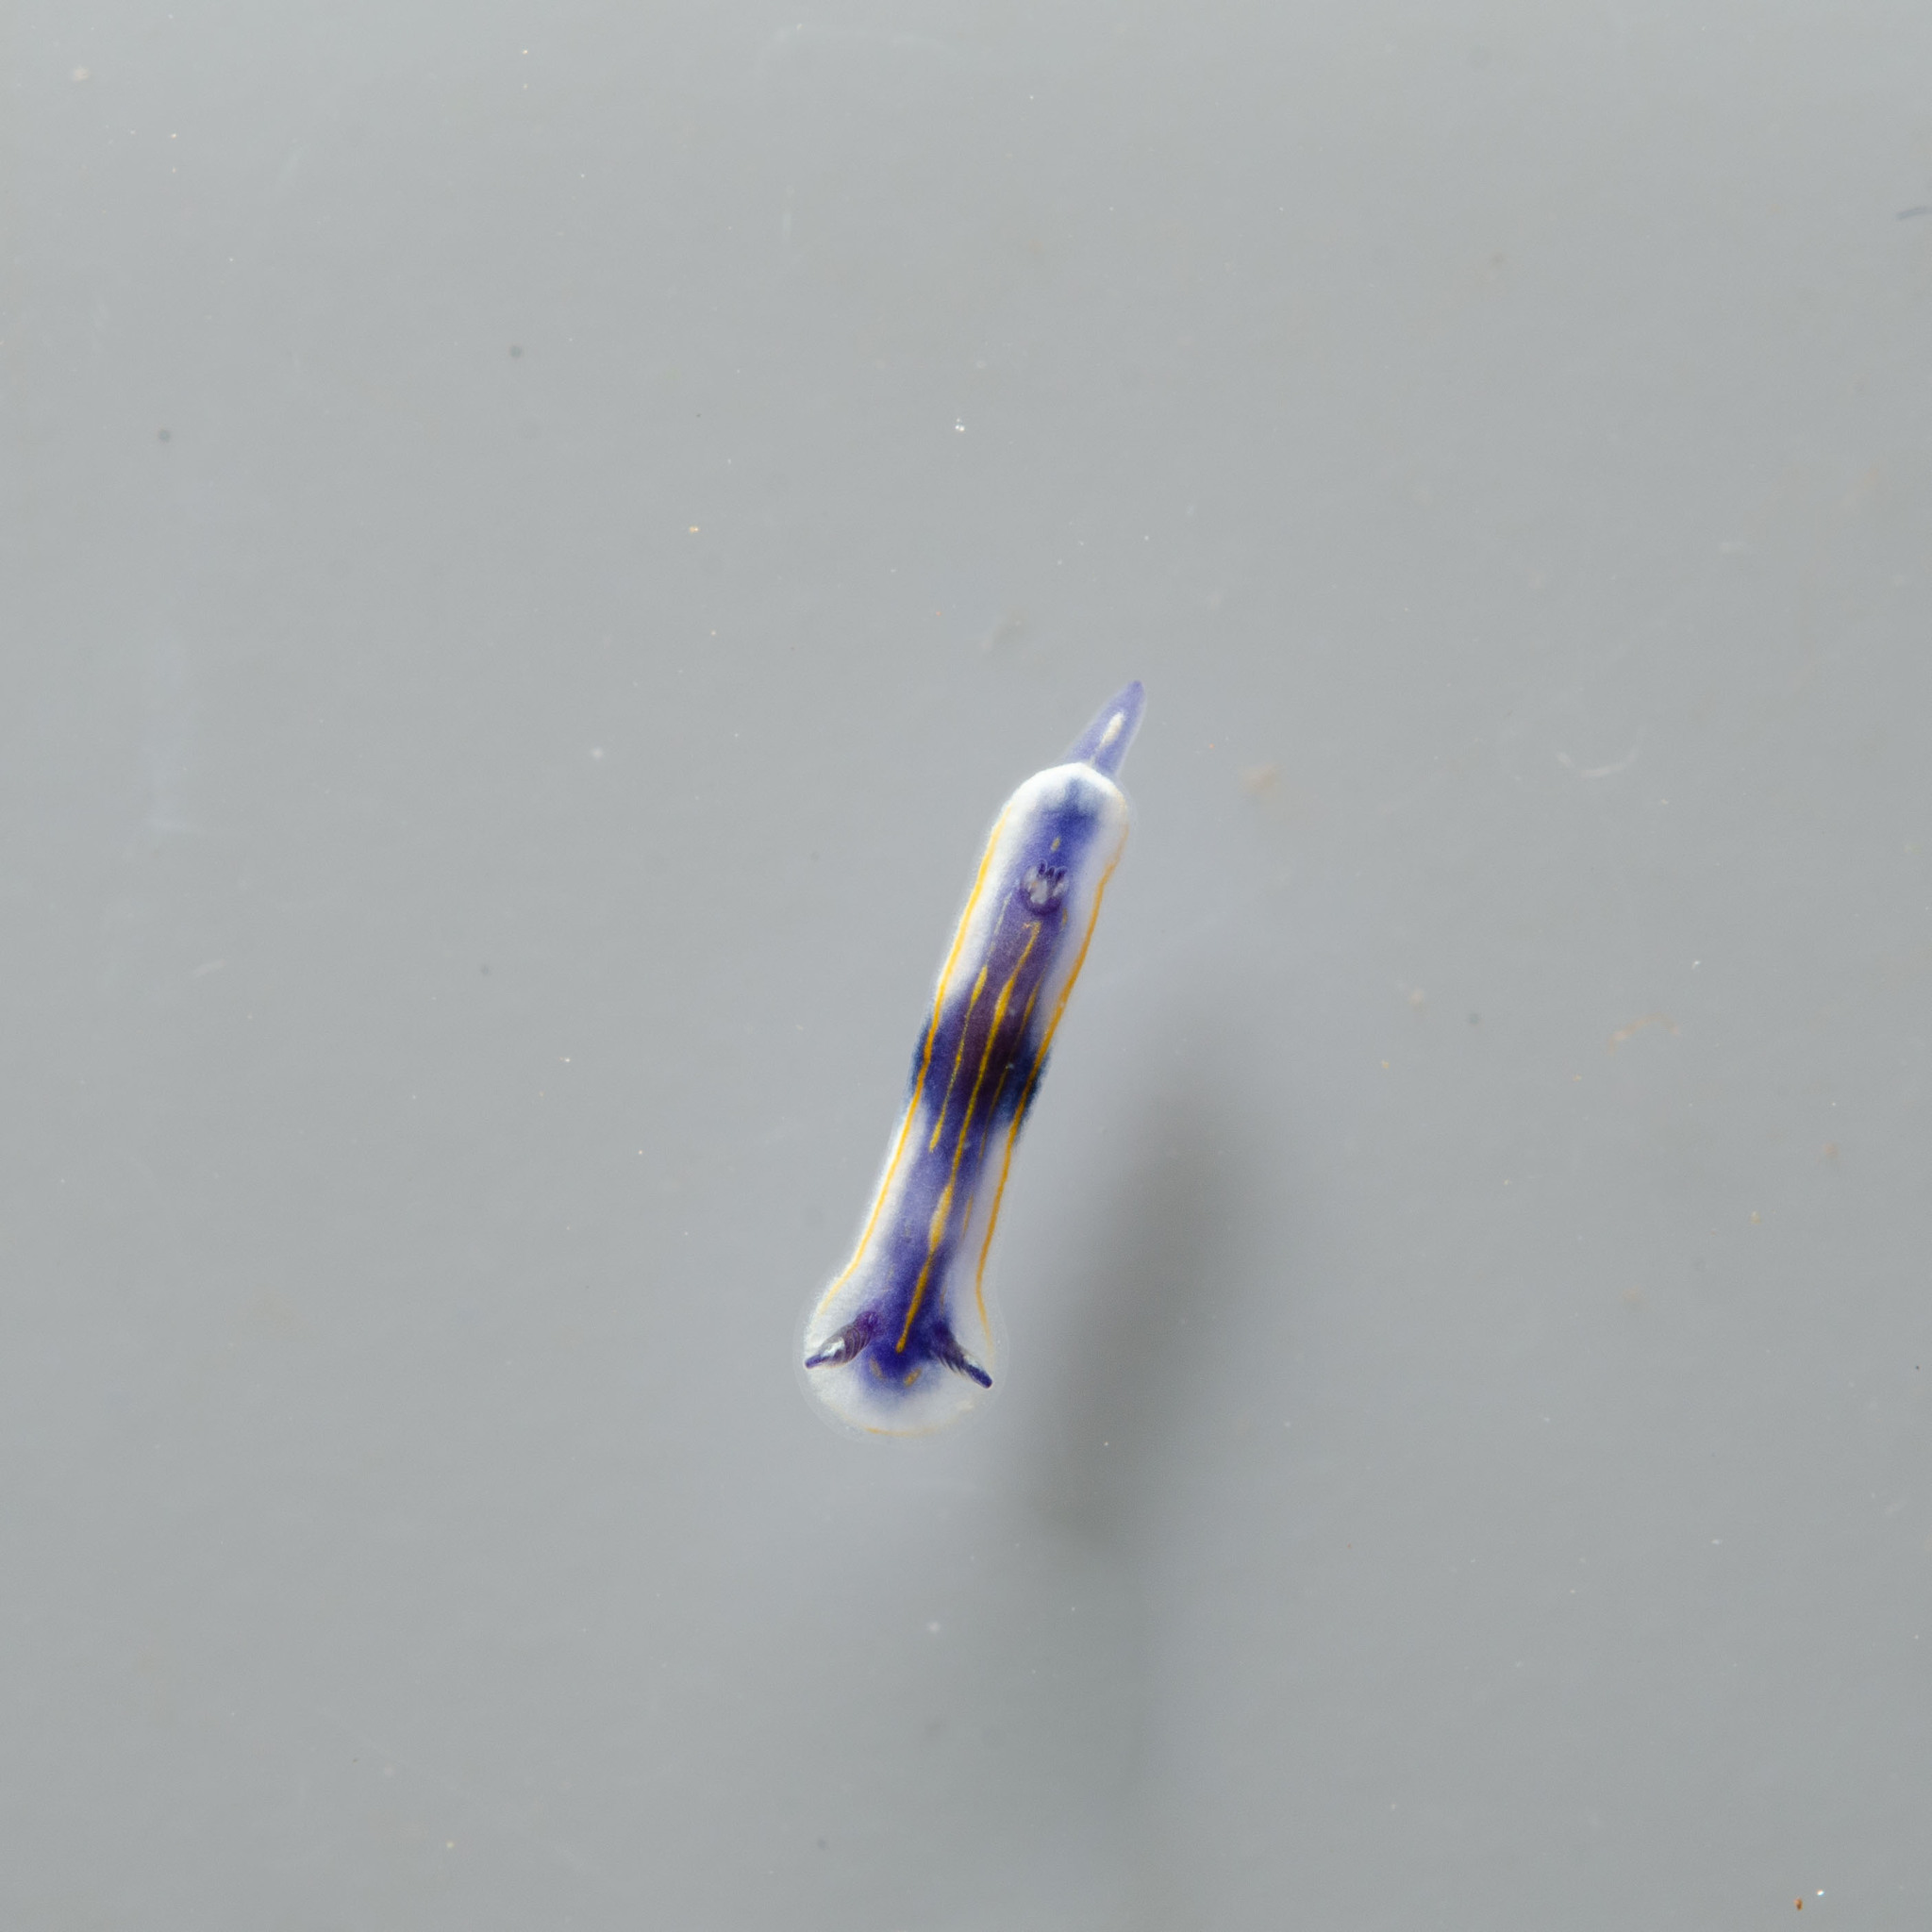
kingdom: Animalia
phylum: Mollusca
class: Gastropoda
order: Nudibranchia
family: Chromodorididae
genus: Felimare
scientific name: Felimare ruthae
